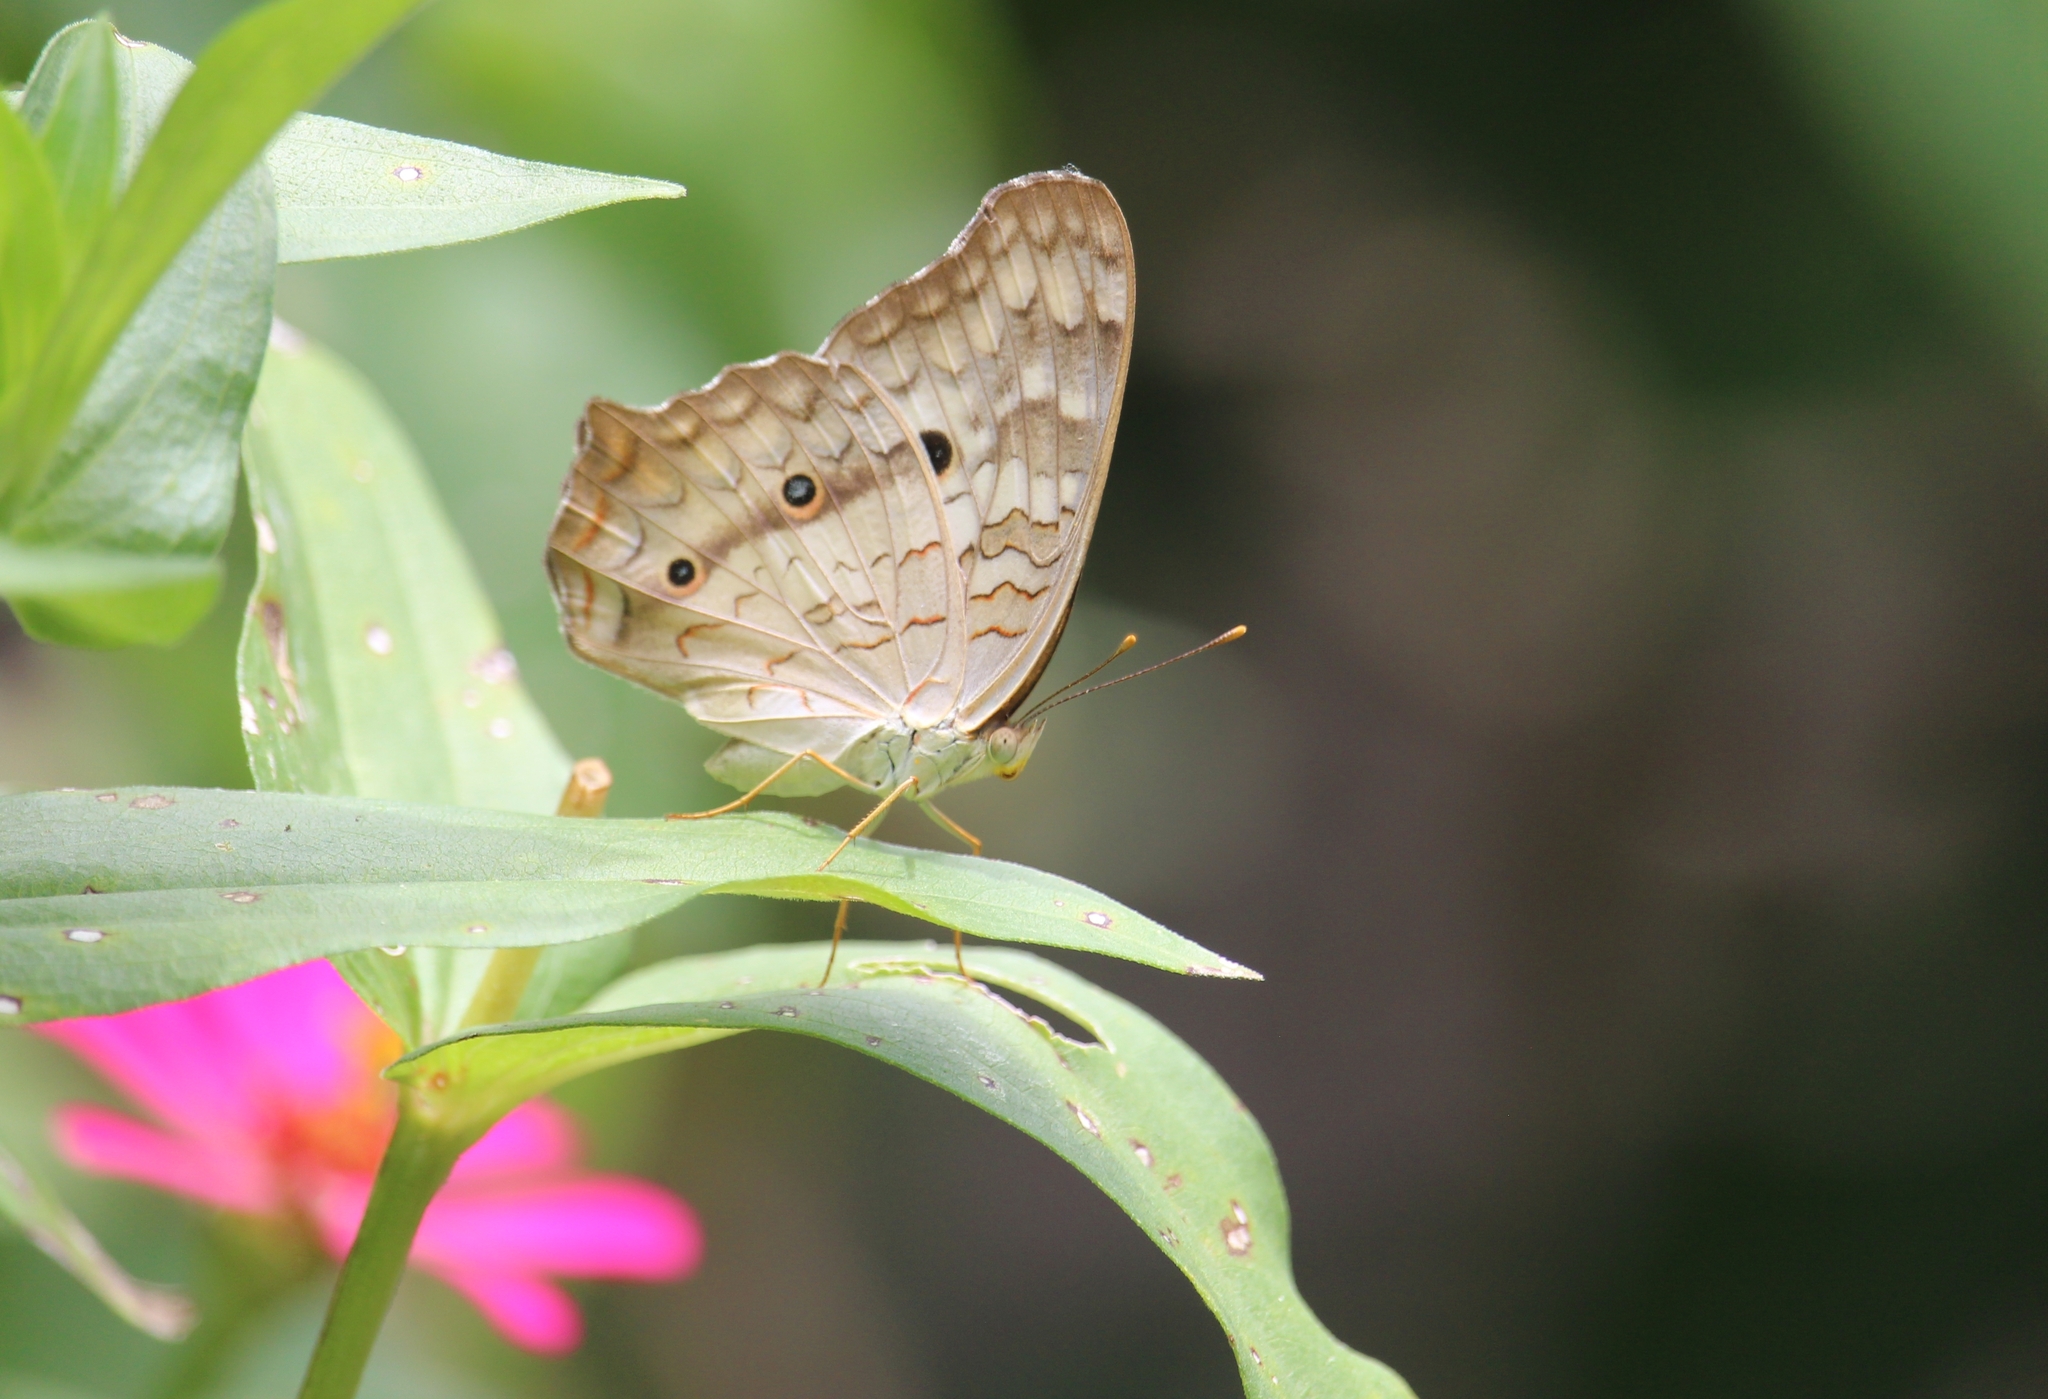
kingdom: Animalia
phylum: Arthropoda
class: Insecta
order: Lepidoptera
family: Nymphalidae
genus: Anartia
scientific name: Anartia jatrophae
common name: White peacock
